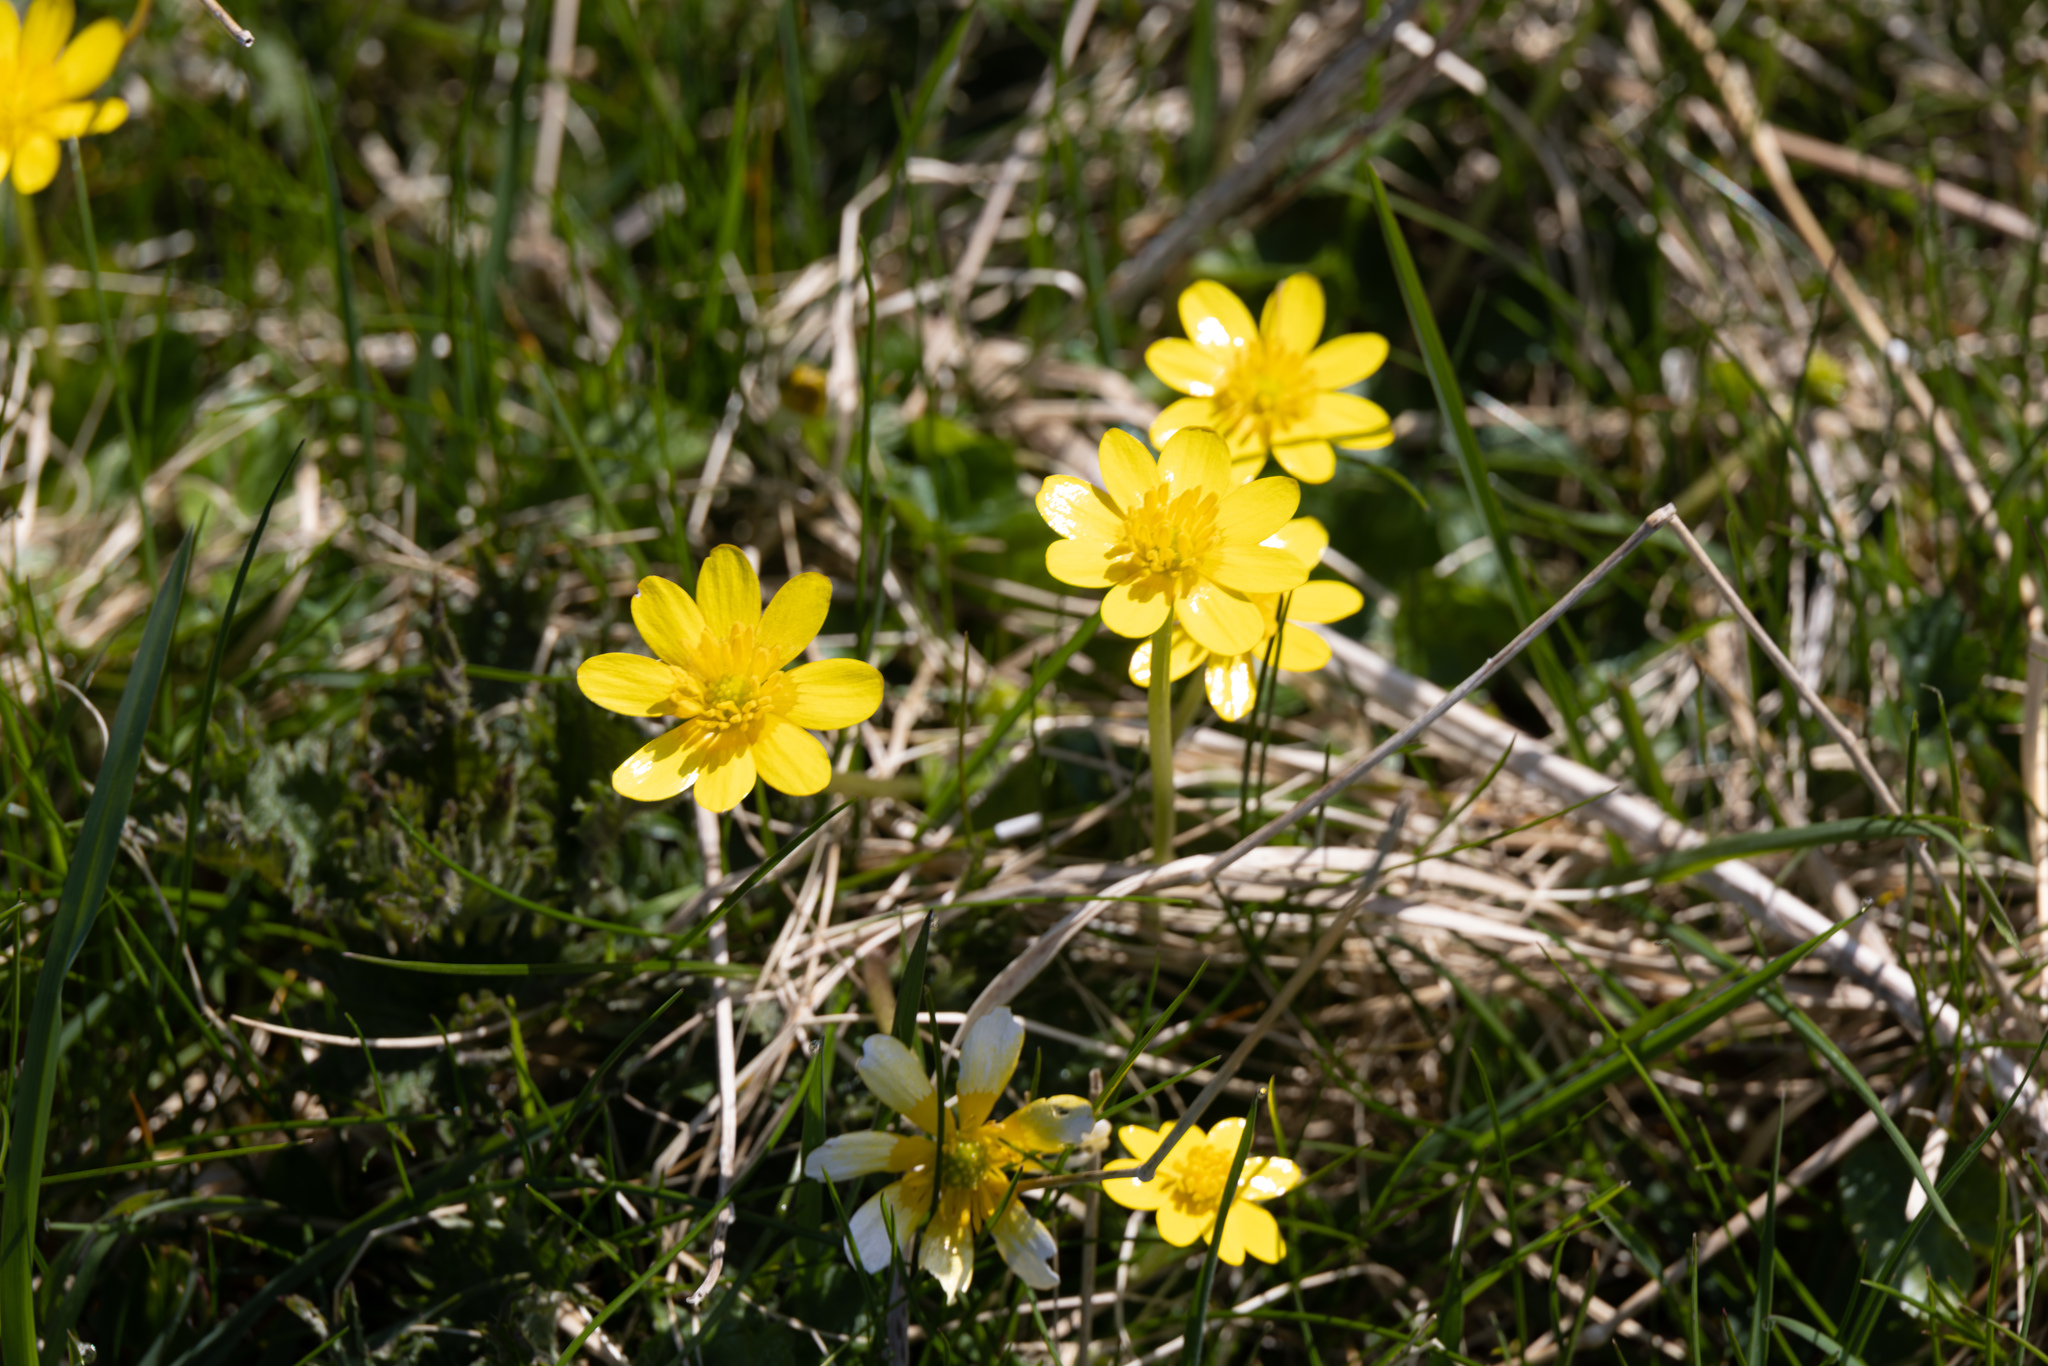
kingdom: Plantae
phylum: Tracheophyta
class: Magnoliopsida
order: Ranunculales
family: Ranunculaceae
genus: Ficaria
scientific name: Ficaria verna
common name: Lesser celandine
